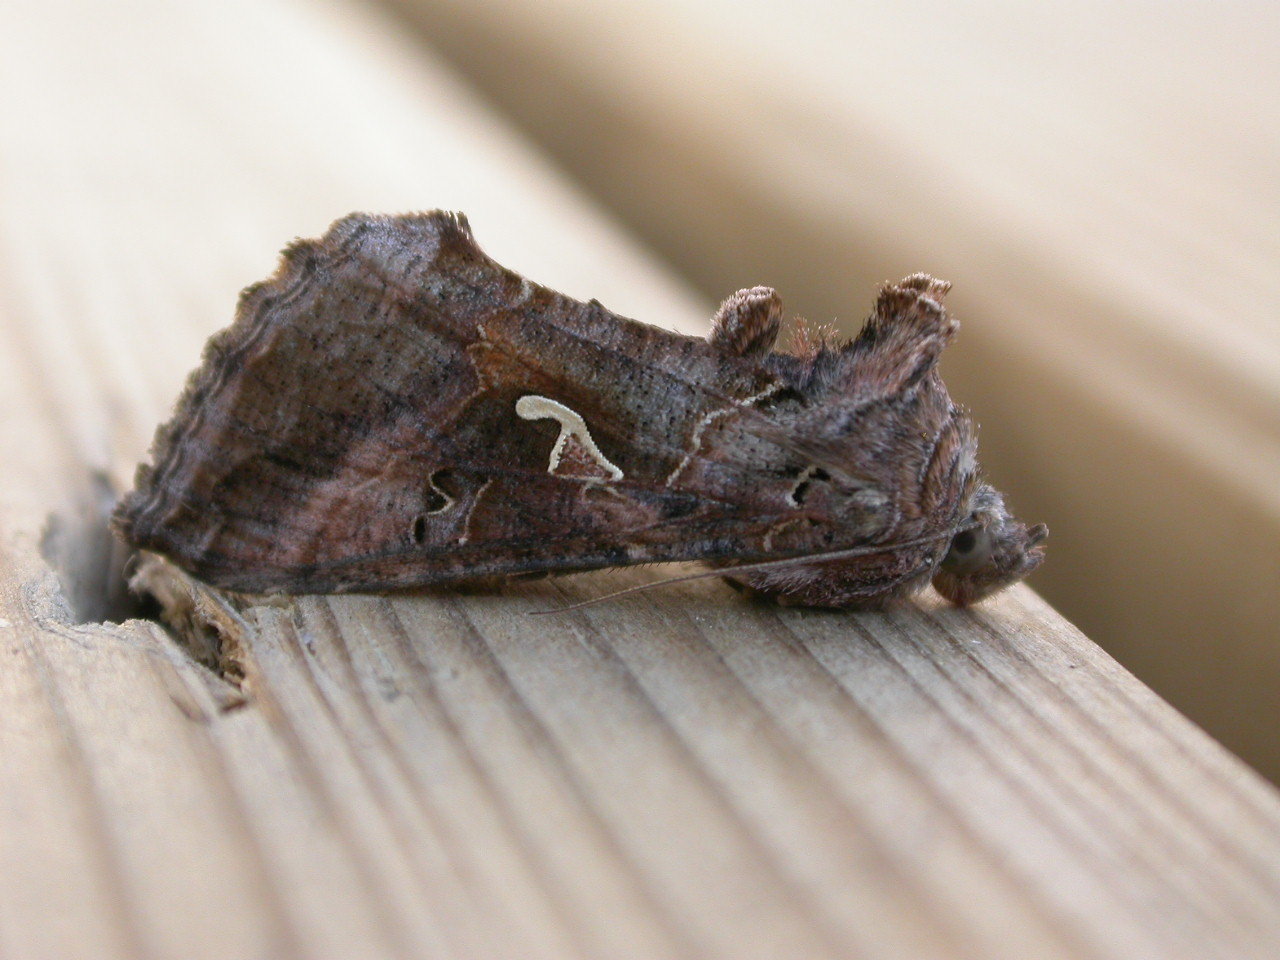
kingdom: Animalia
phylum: Arthropoda
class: Insecta
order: Lepidoptera
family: Noctuidae
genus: Autographa
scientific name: Autographa gamma
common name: Silver y
